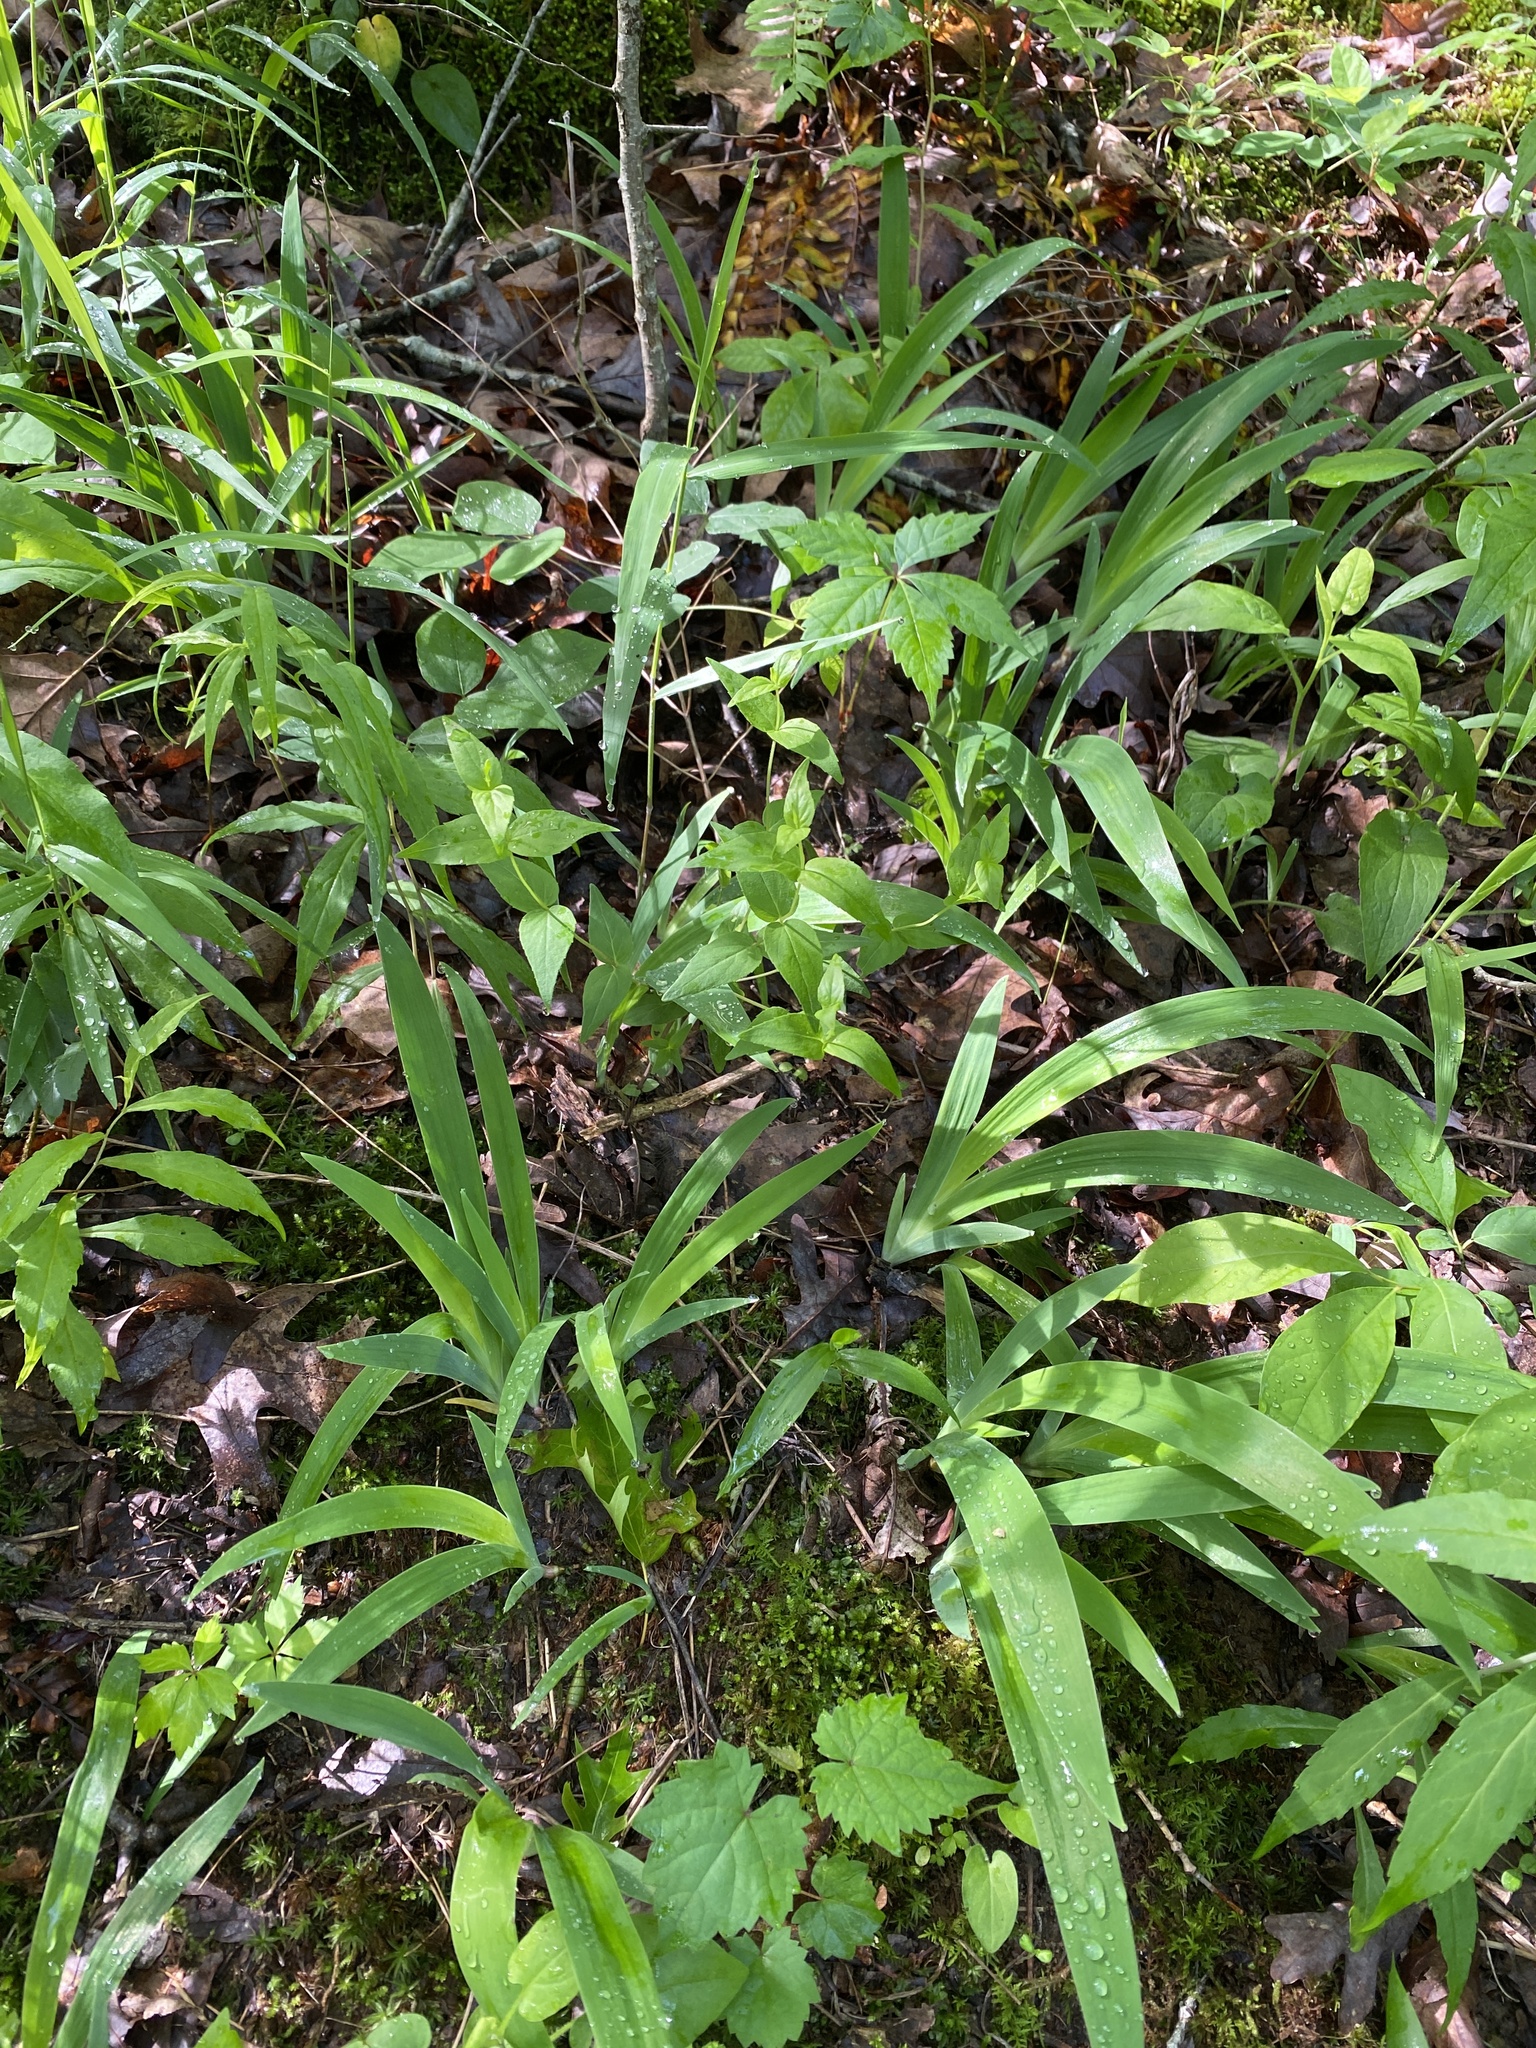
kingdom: Plantae
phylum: Tracheophyta
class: Liliopsida
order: Asparagales
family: Iridaceae
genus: Iris
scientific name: Iris cristata
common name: Crested iris
